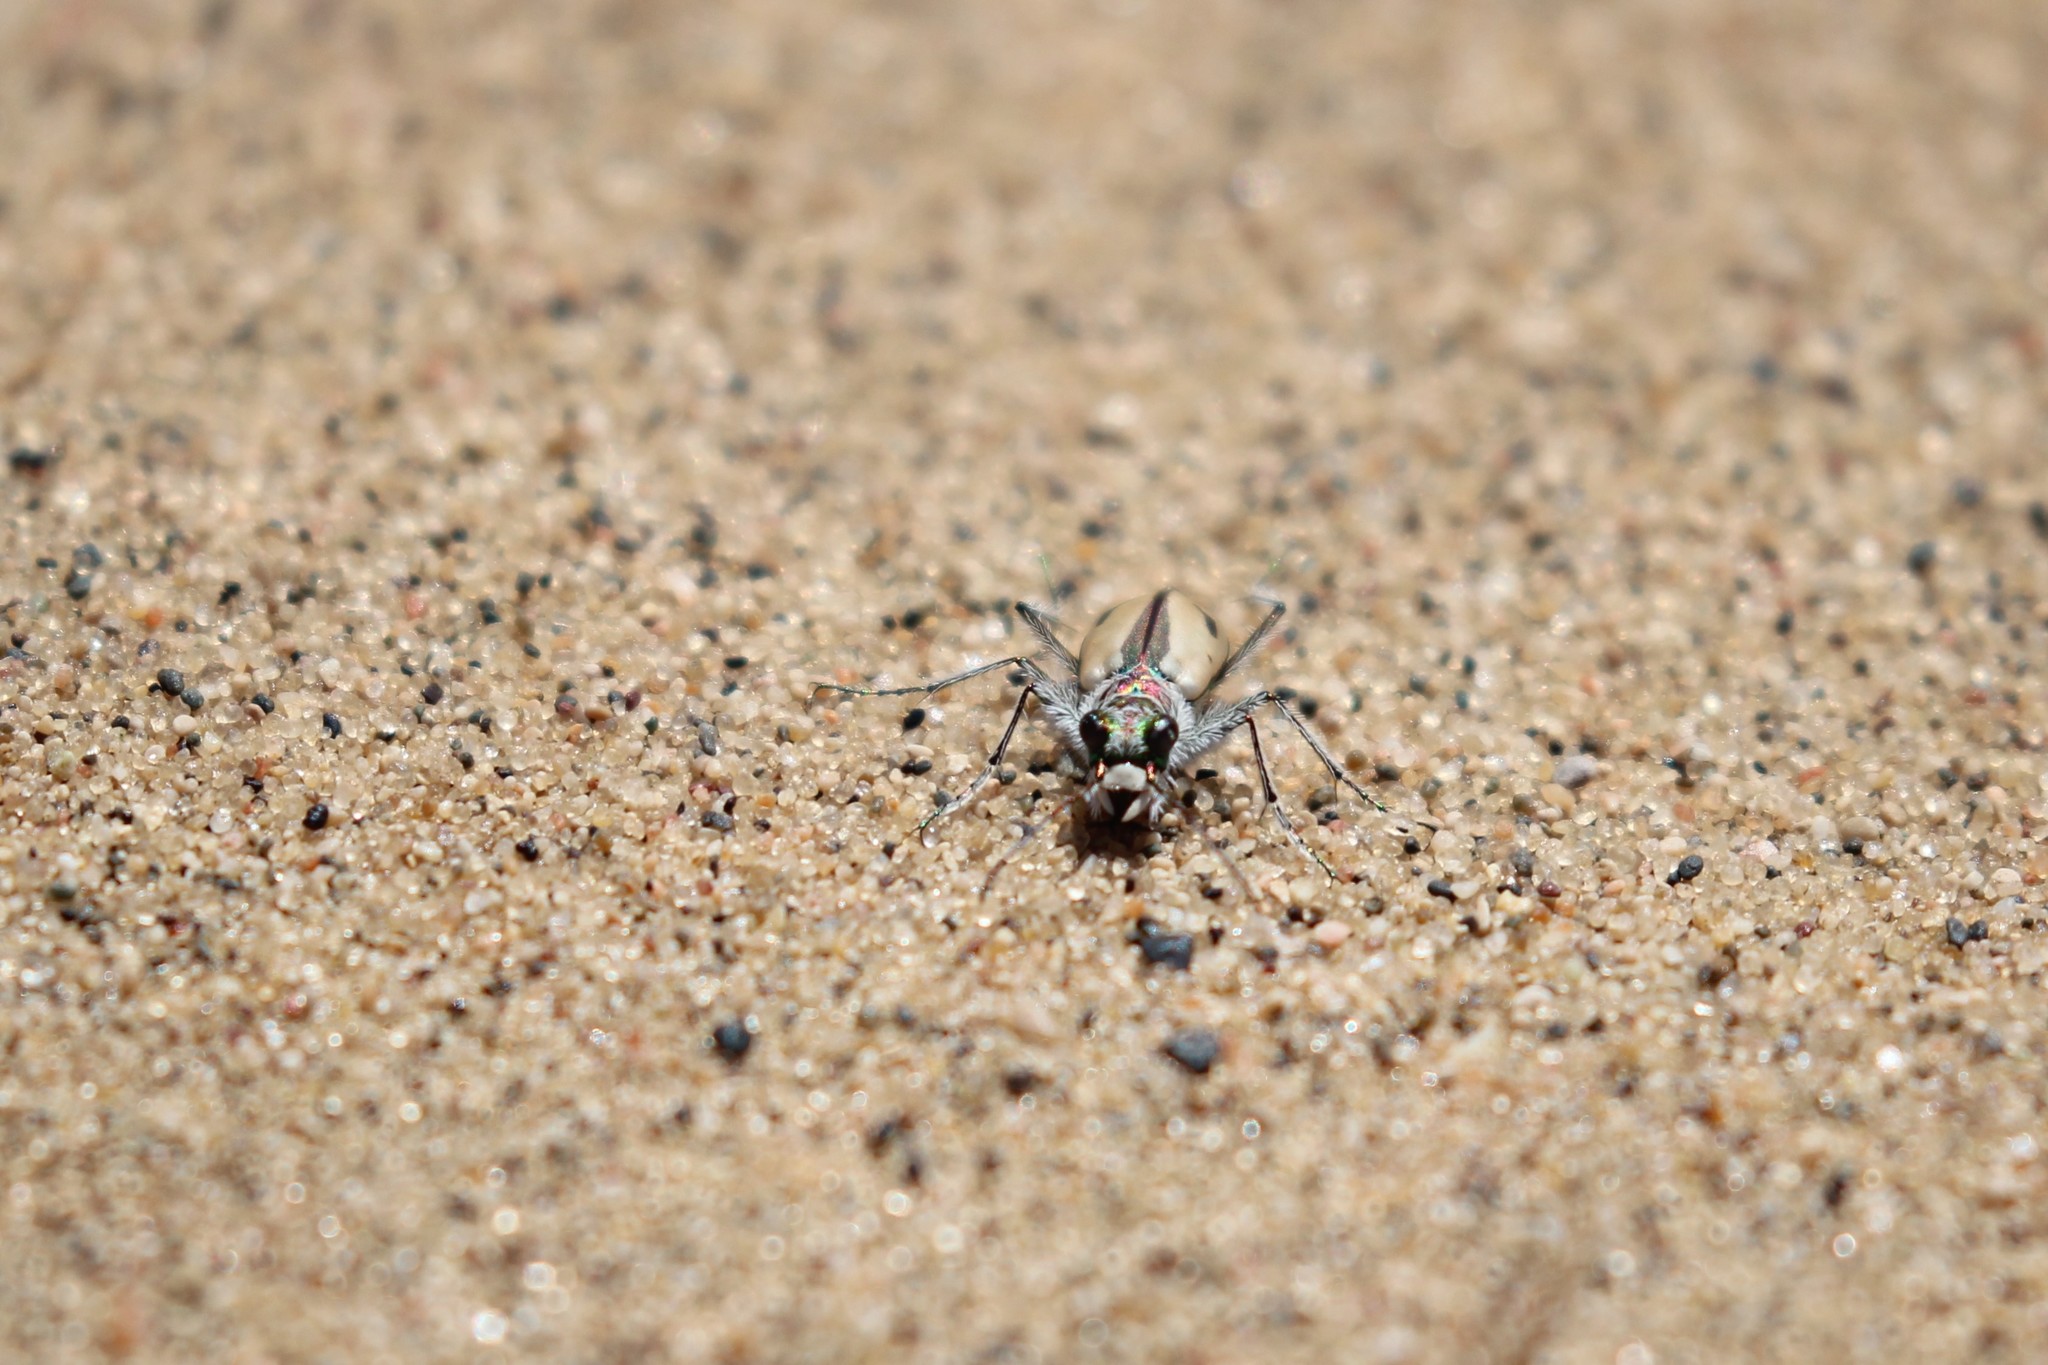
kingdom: Animalia
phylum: Arthropoda
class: Insecta
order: Coleoptera
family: Carabidae
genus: Cicindela
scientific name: Cicindela limbata
